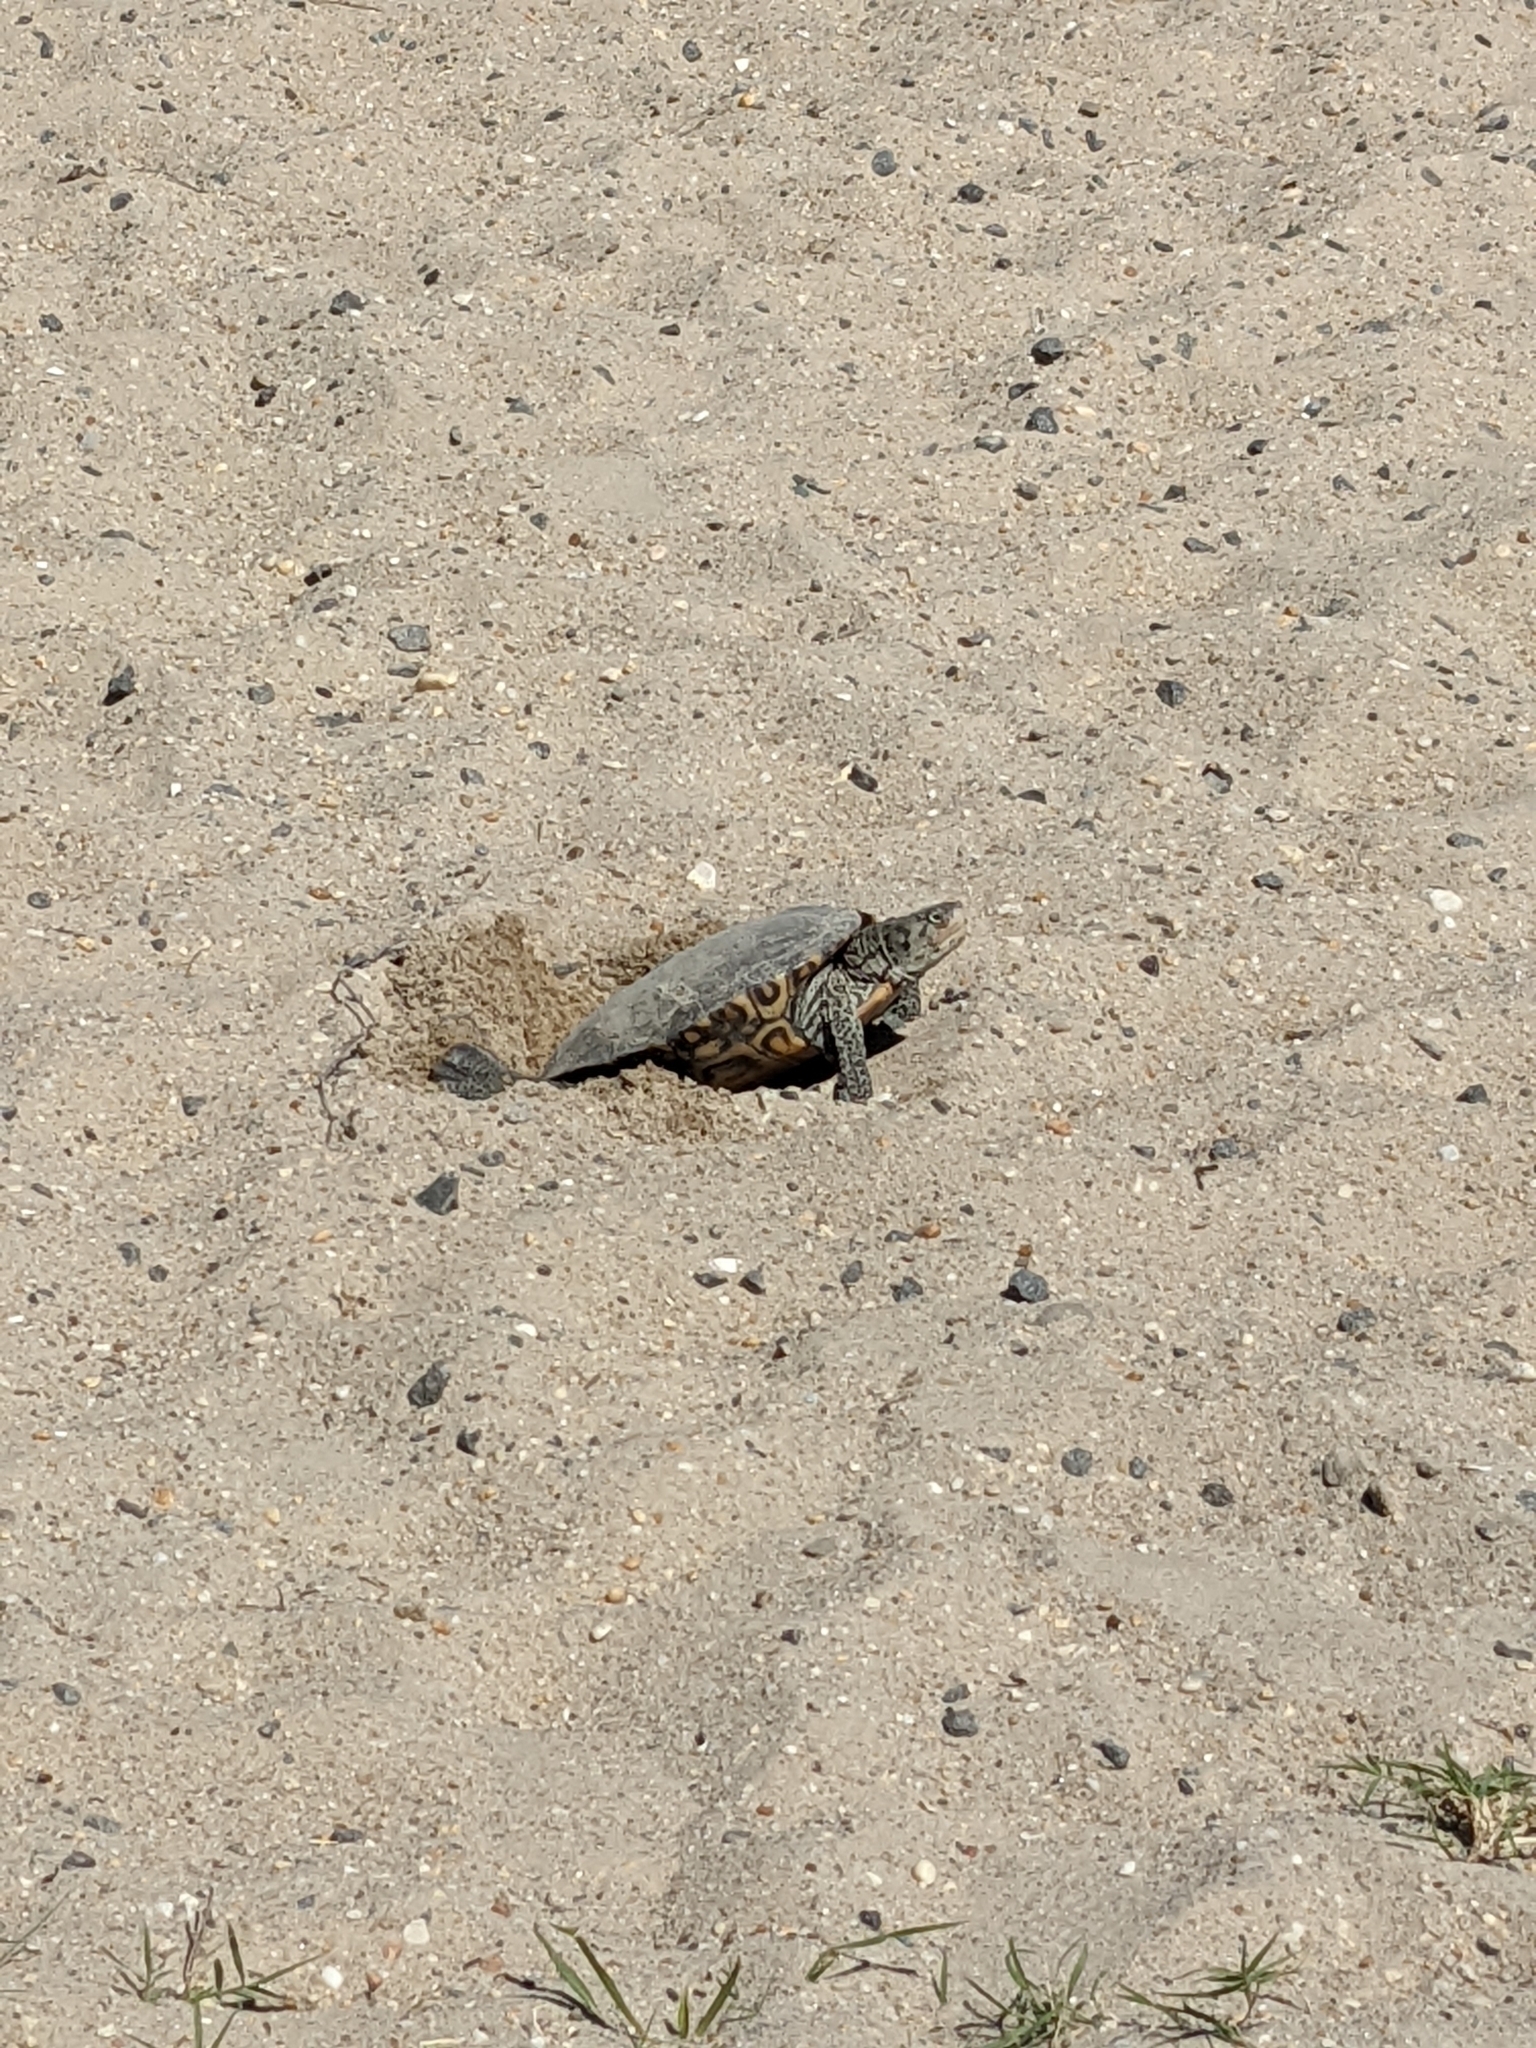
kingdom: Animalia
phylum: Chordata
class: Testudines
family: Emydidae
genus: Malaclemys
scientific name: Malaclemys terrapin
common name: Diamondback terrapin
